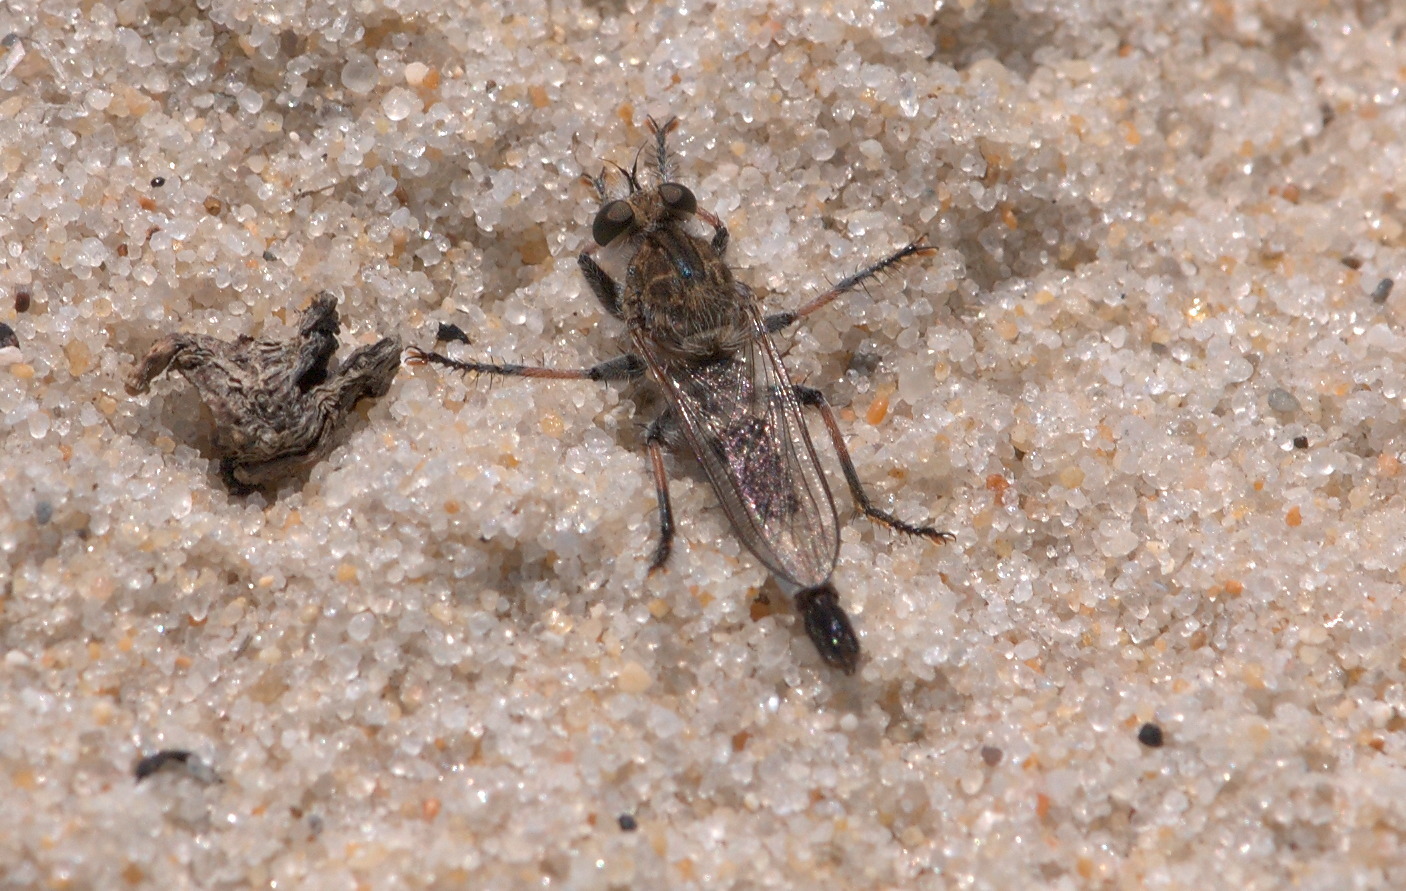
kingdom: Animalia
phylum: Arthropoda
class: Insecta
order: Diptera
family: Asilidae
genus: Efferia
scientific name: Efferia albibarbis
